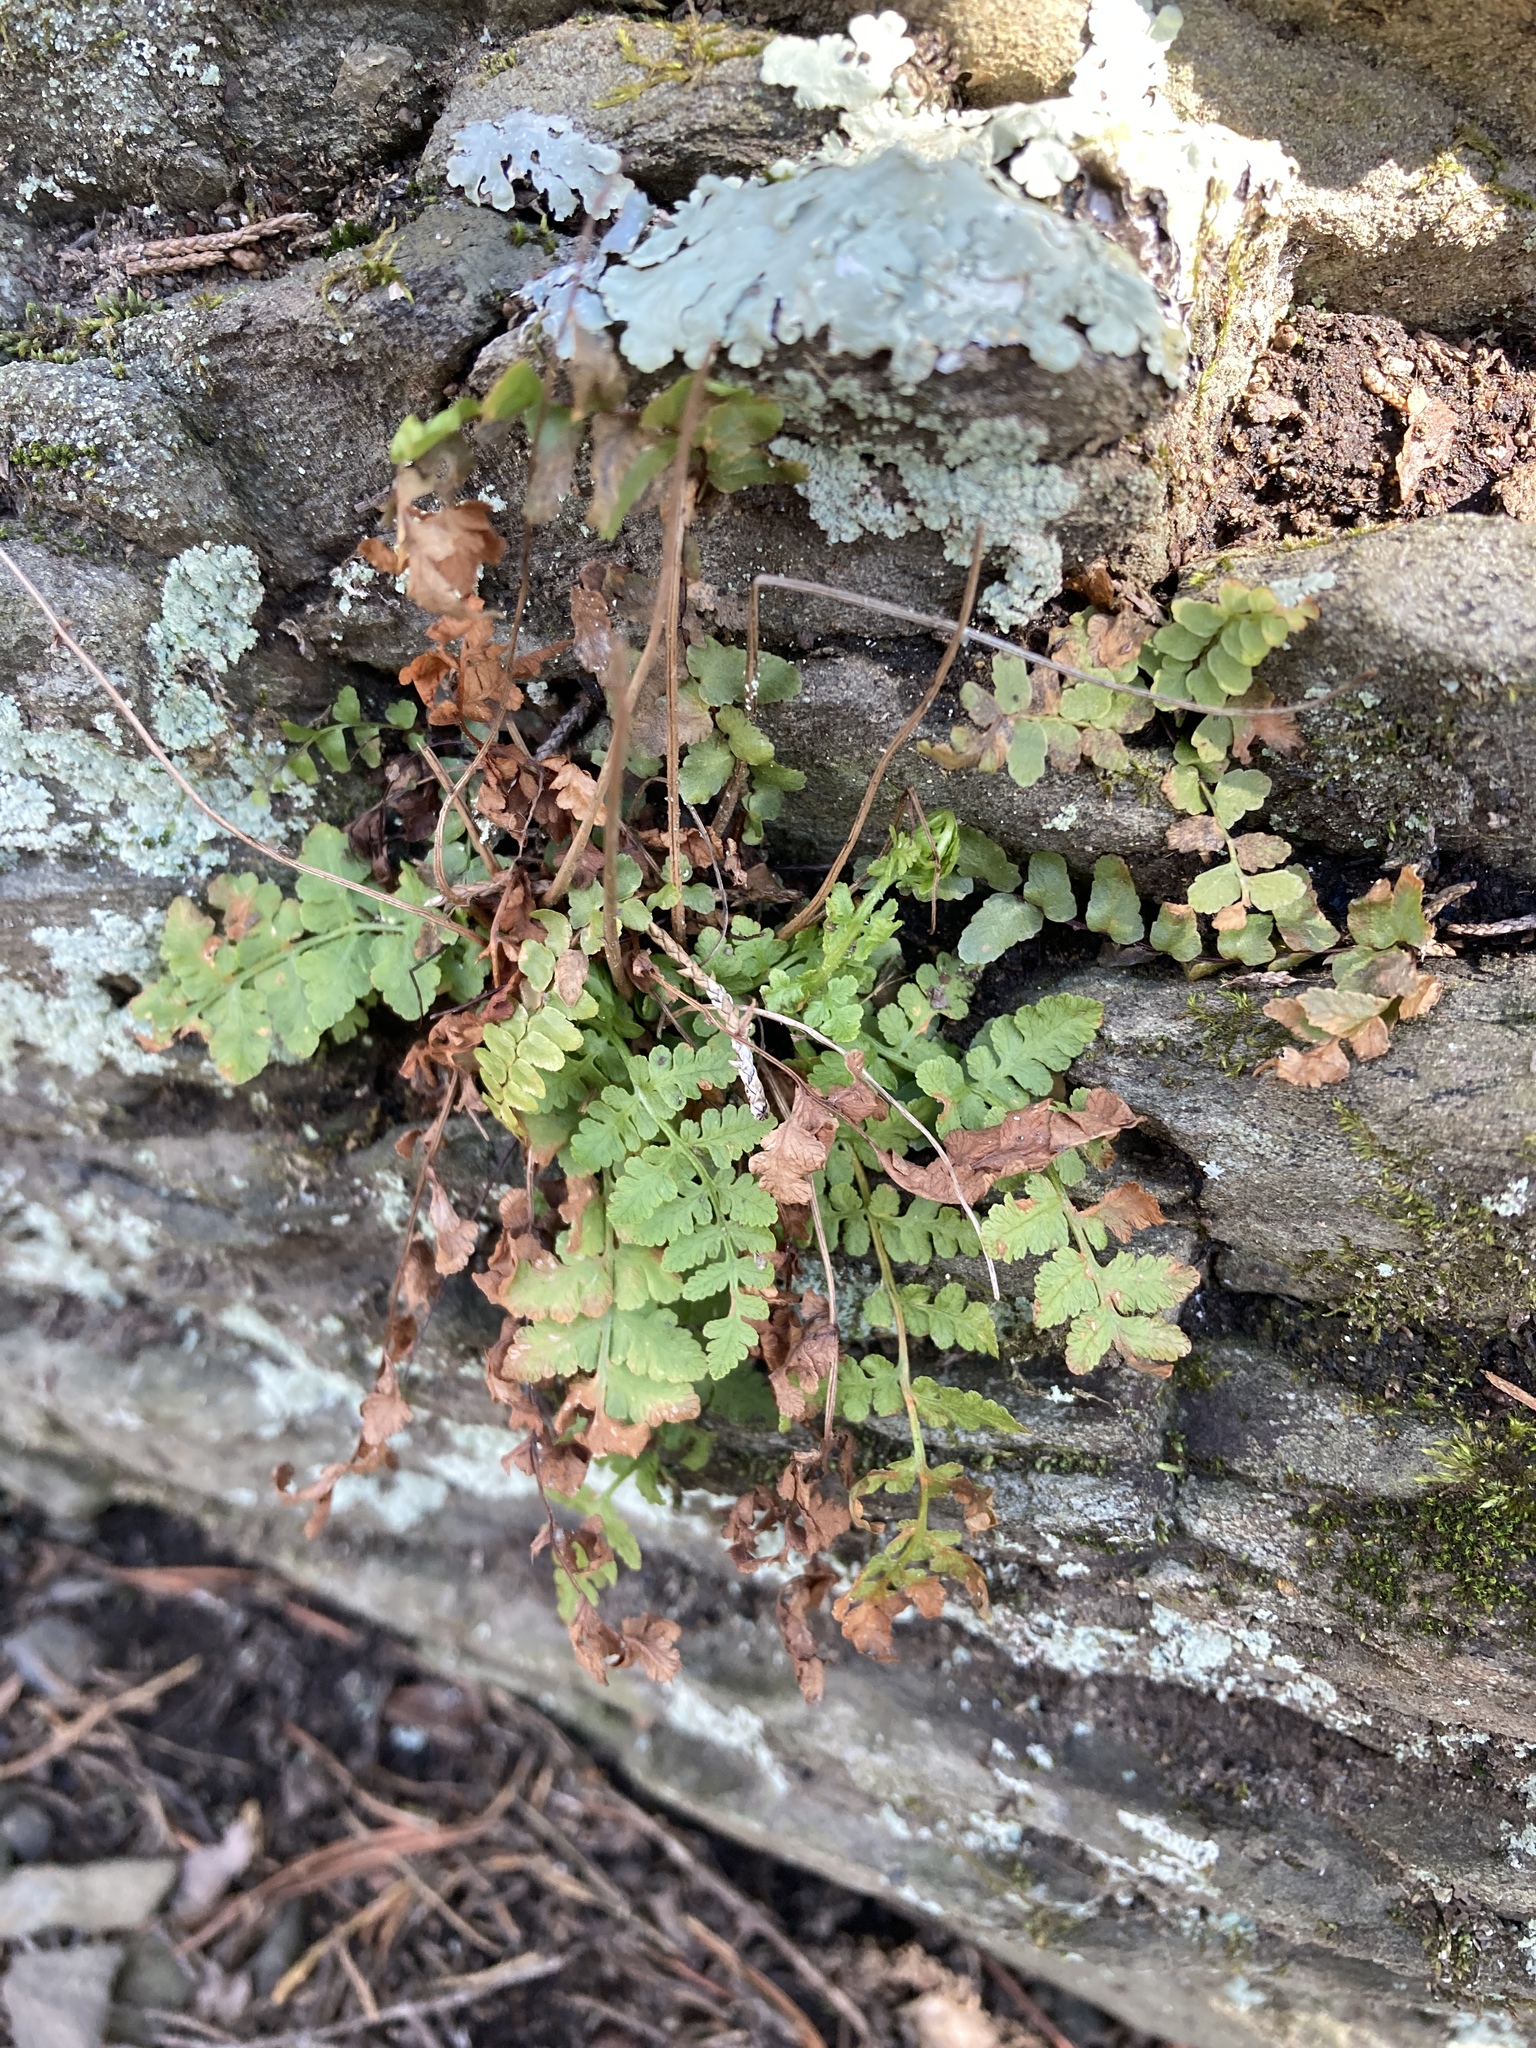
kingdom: Plantae
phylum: Tracheophyta
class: Polypodiopsida
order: Polypodiales
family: Woodsiaceae
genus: Physematium
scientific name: Physematium obtusum
